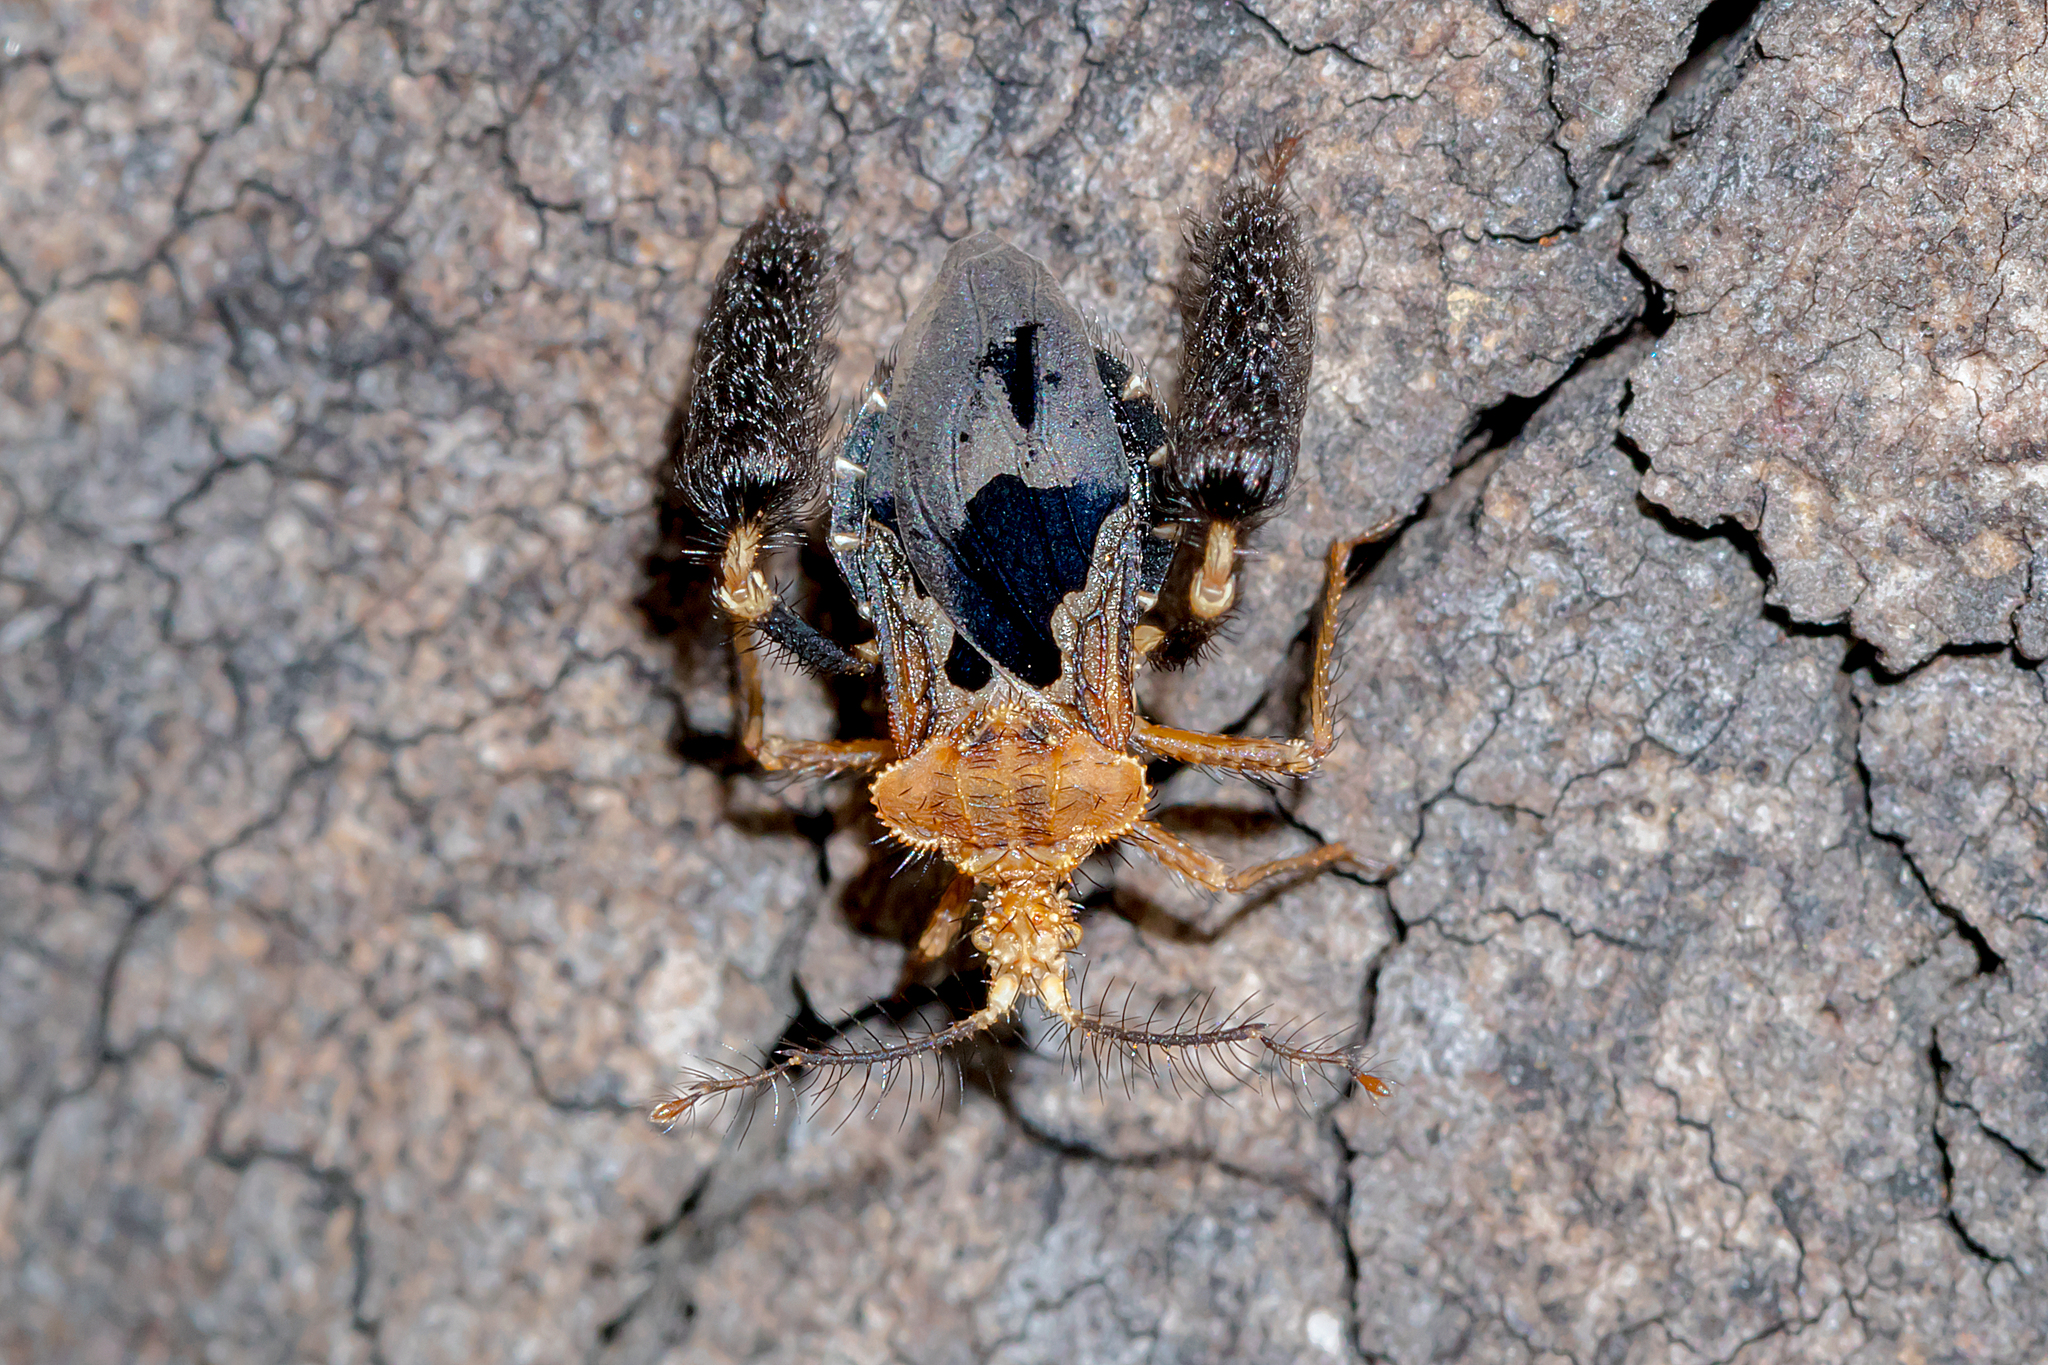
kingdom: Animalia
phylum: Arthropoda
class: Insecta
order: Hemiptera
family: Reduviidae
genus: Ptilocnemus
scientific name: Ptilocnemus lemur
